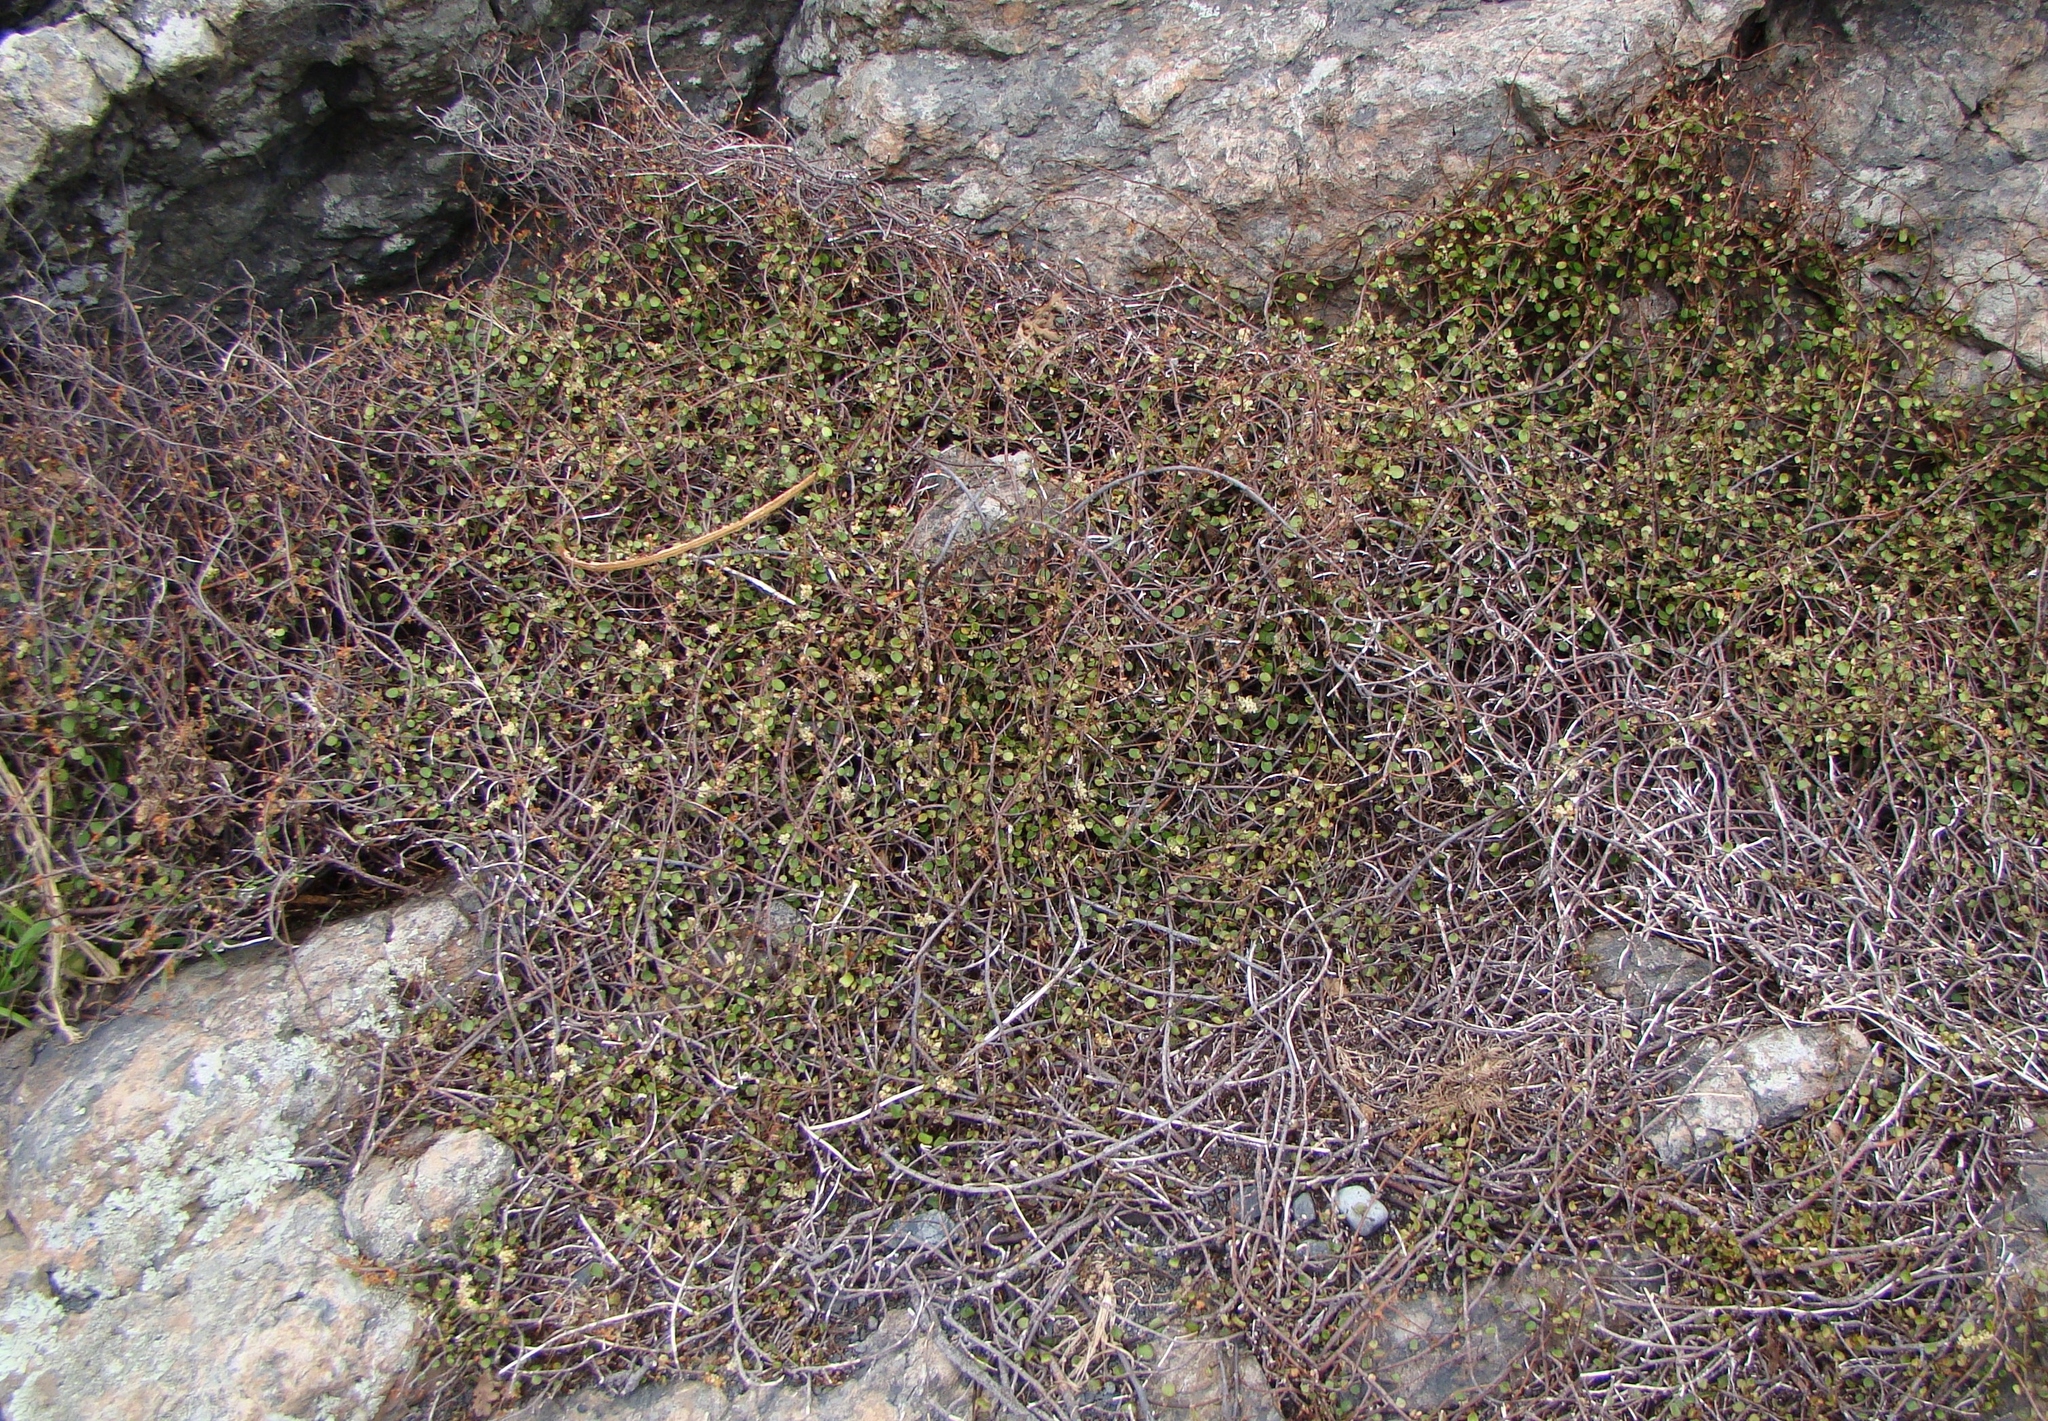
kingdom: Plantae
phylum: Tracheophyta
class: Magnoliopsida
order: Caryophyllales
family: Polygonaceae
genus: Muehlenbeckia
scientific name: Muehlenbeckia complexa
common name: Wireplant
